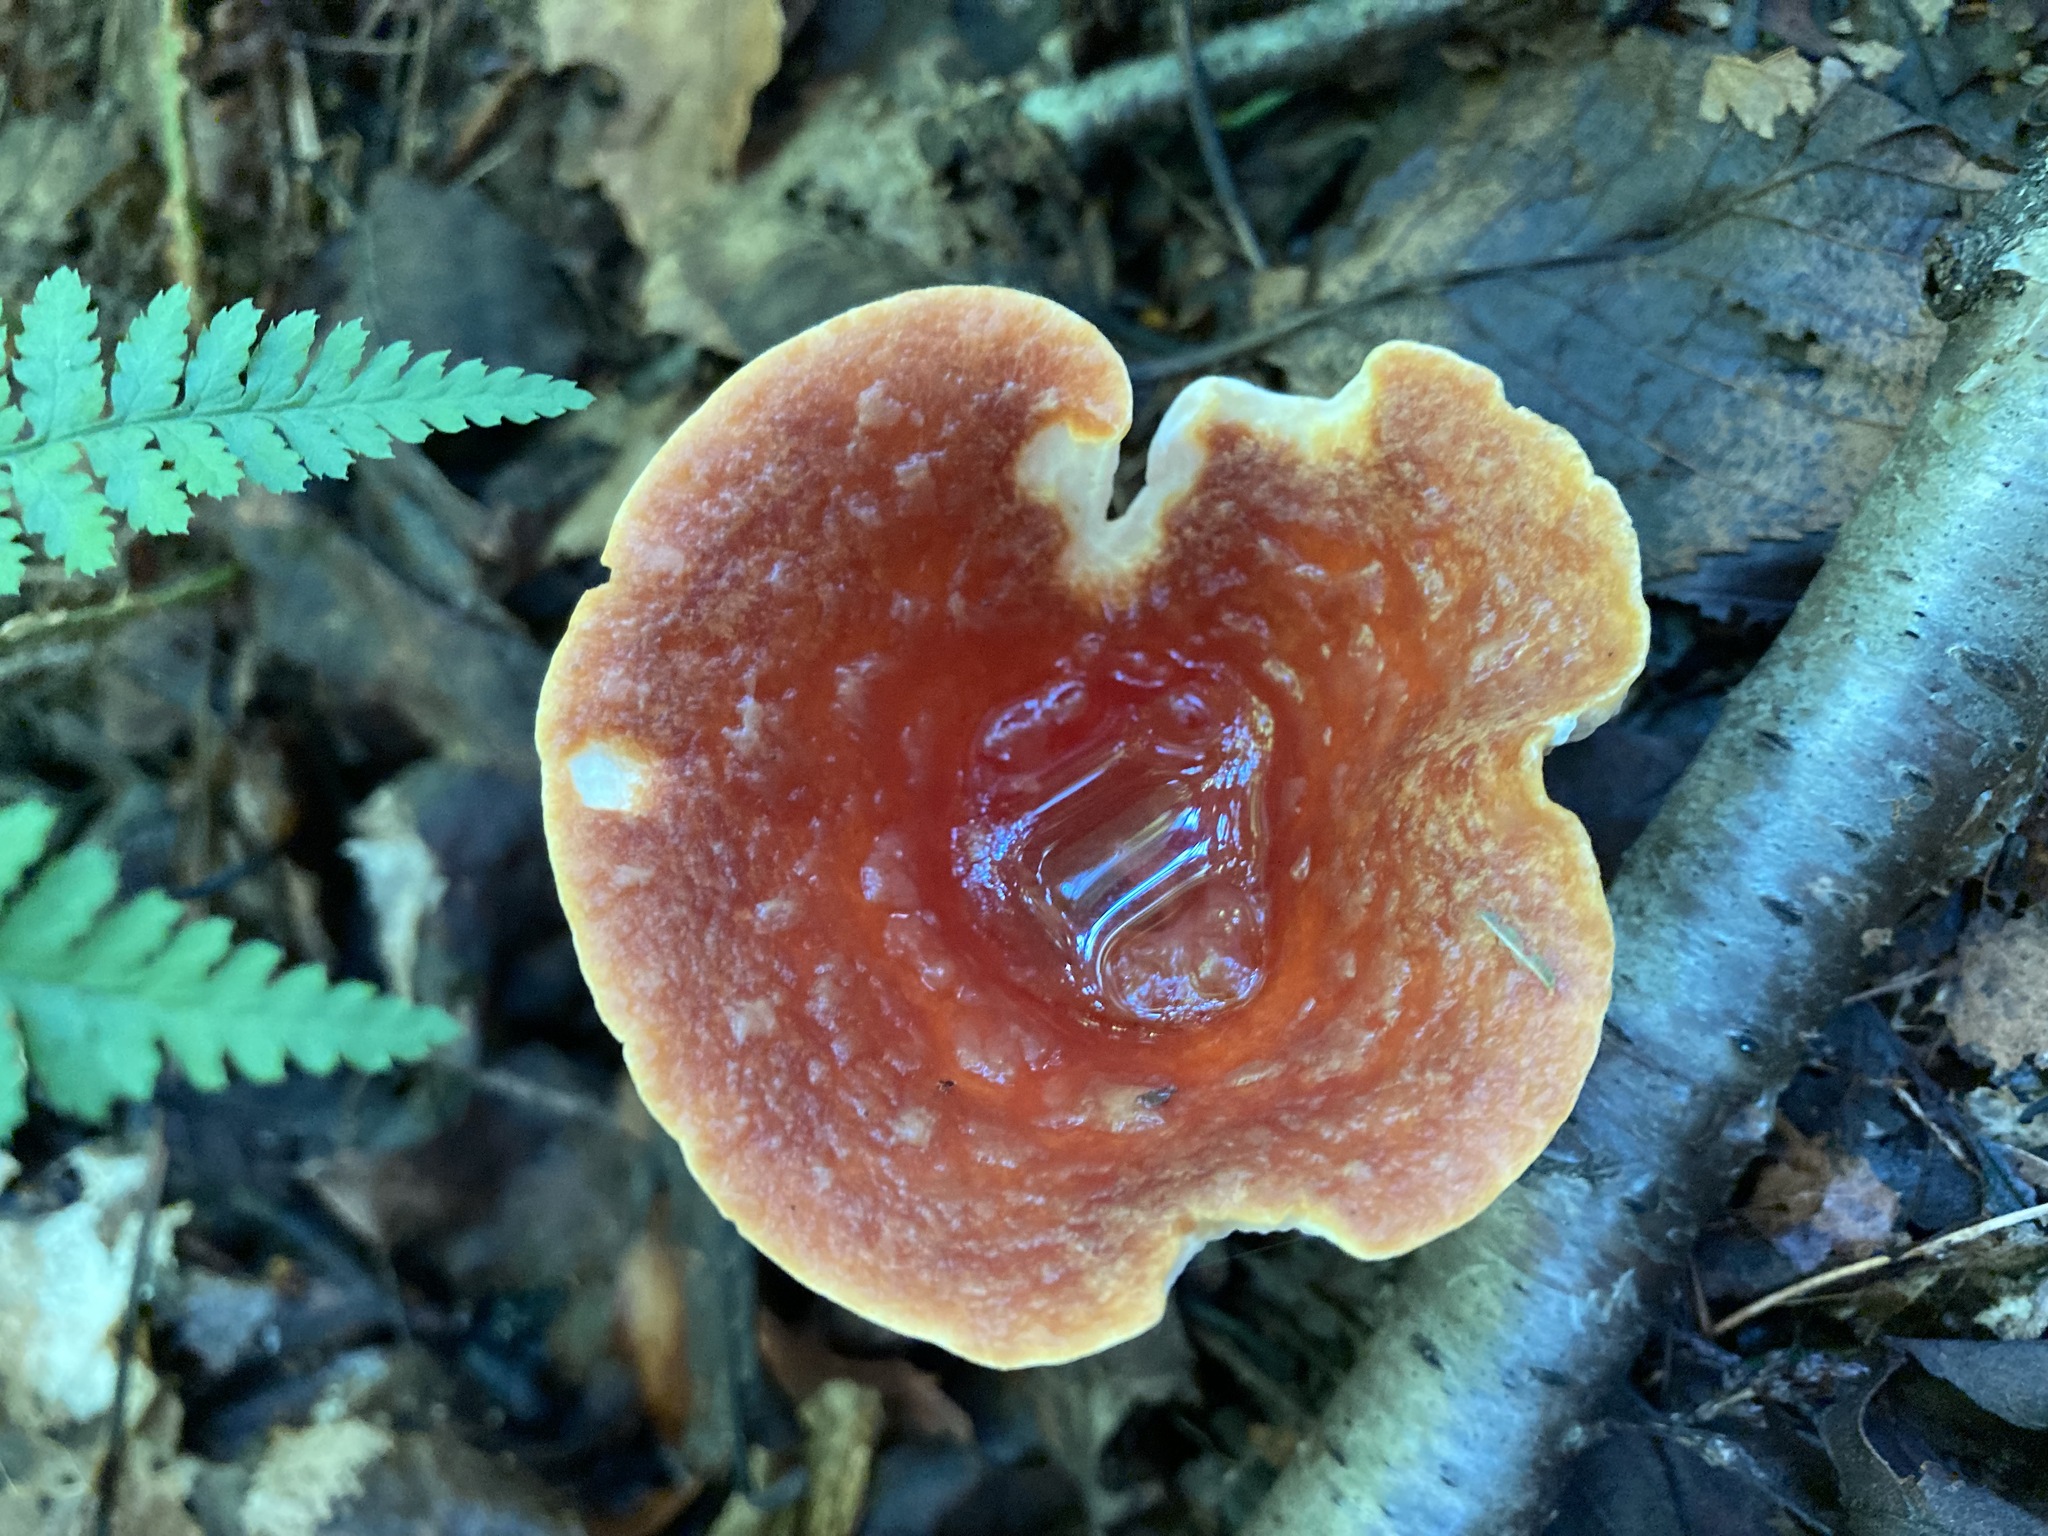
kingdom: Fungi
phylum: Basidiomycota
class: Agaricomycetes
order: Gomphales
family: Gomphaceae
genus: Turbinellus
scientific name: Turbinellus floccosus
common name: Scaly chanterelle
